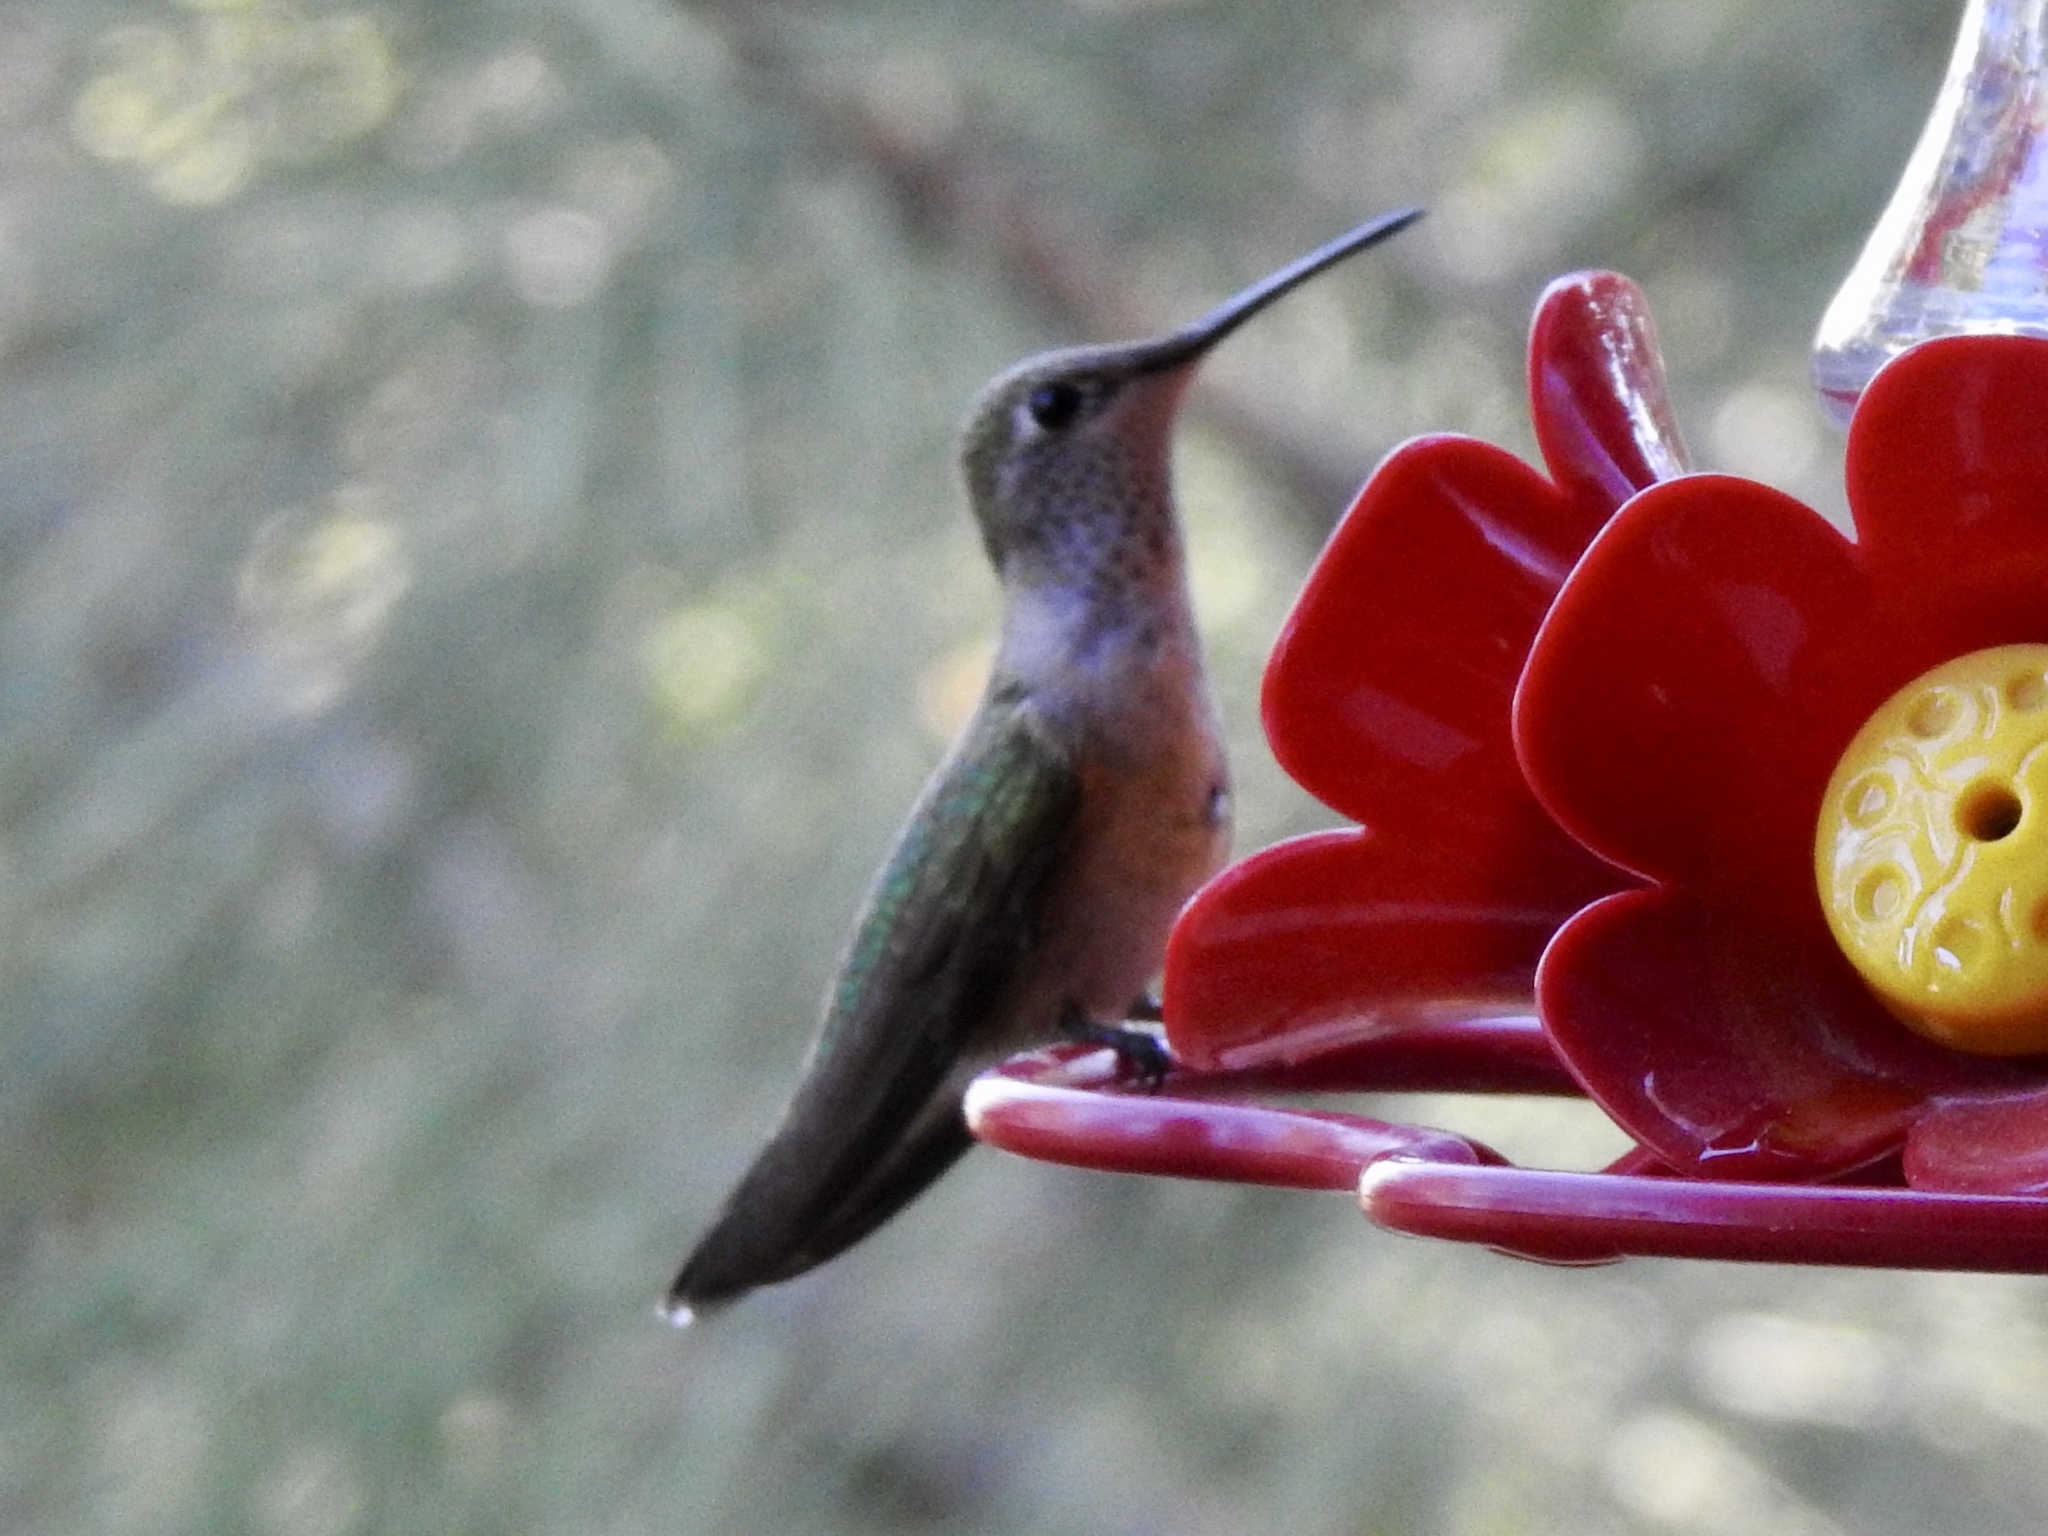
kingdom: Animalia
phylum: Chordata
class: Aves
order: Apodiformes
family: Trochilidae
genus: Selasphorus
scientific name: Selasphorus platycercus
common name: Broad-tailed hummingbird
